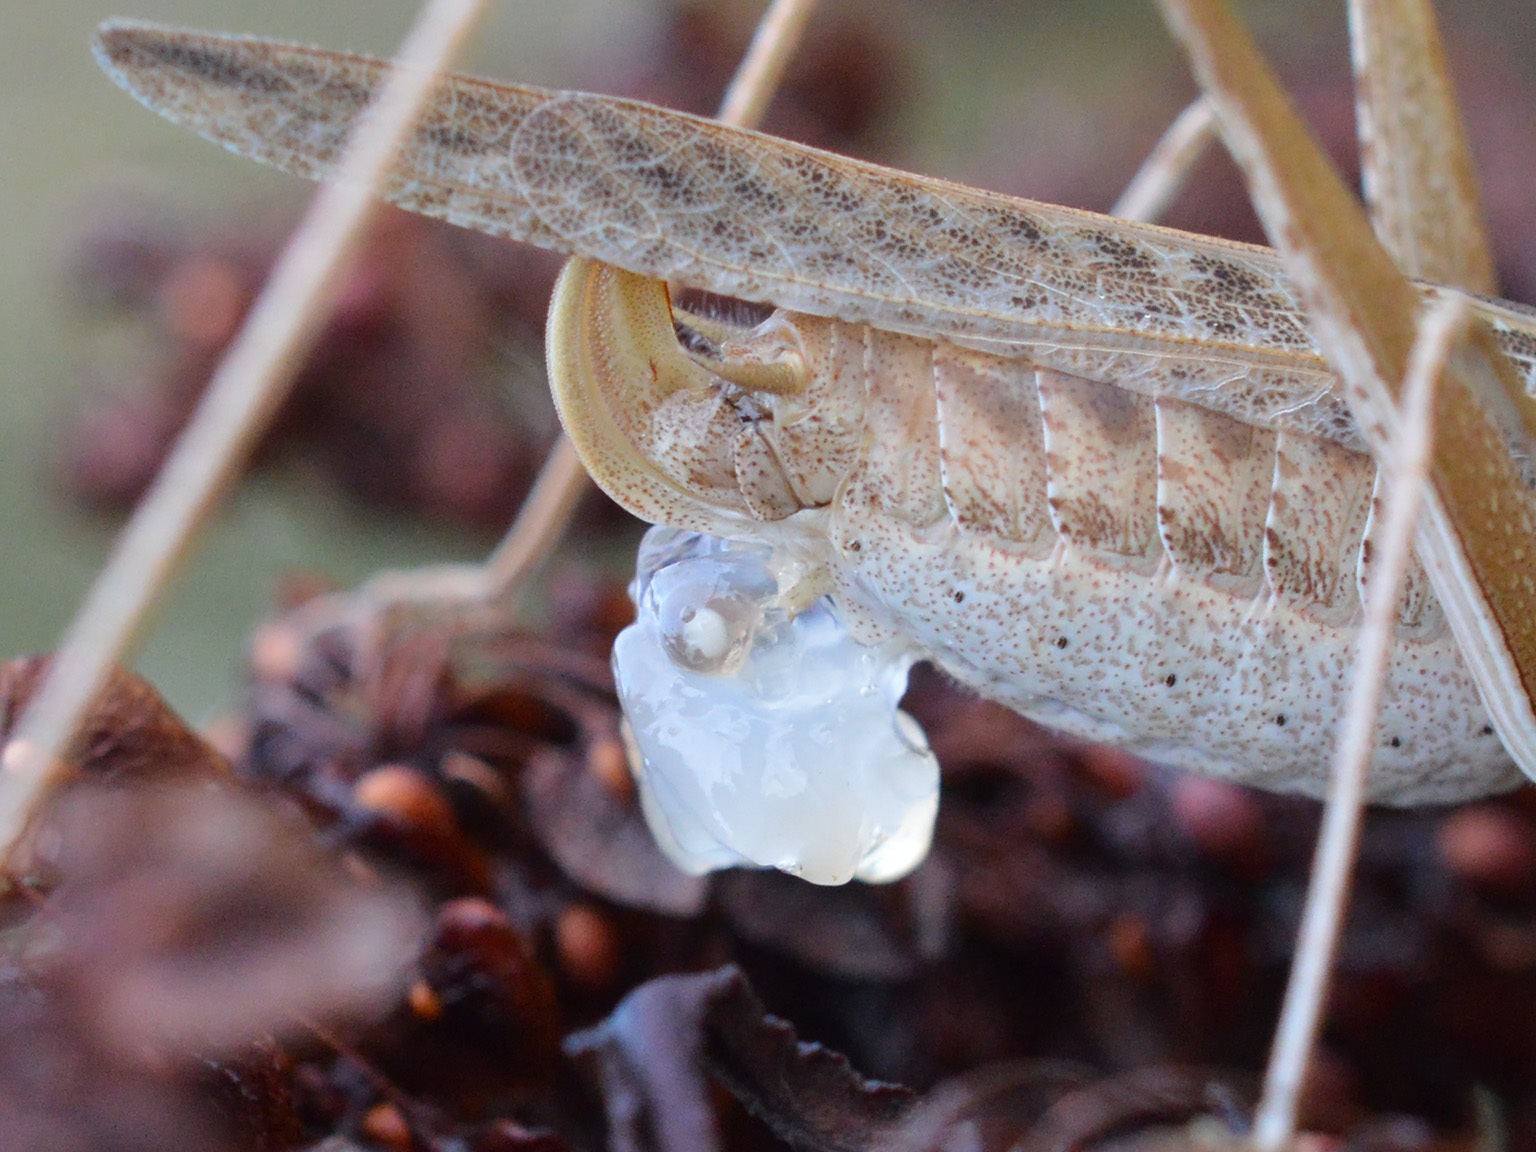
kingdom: Animalia
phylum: Arthropoda
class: Insecta
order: Orthoptera
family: Tettigoniidae
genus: Tylopsis
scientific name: Tylopsis lilifolia
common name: Lily bush-cricket
